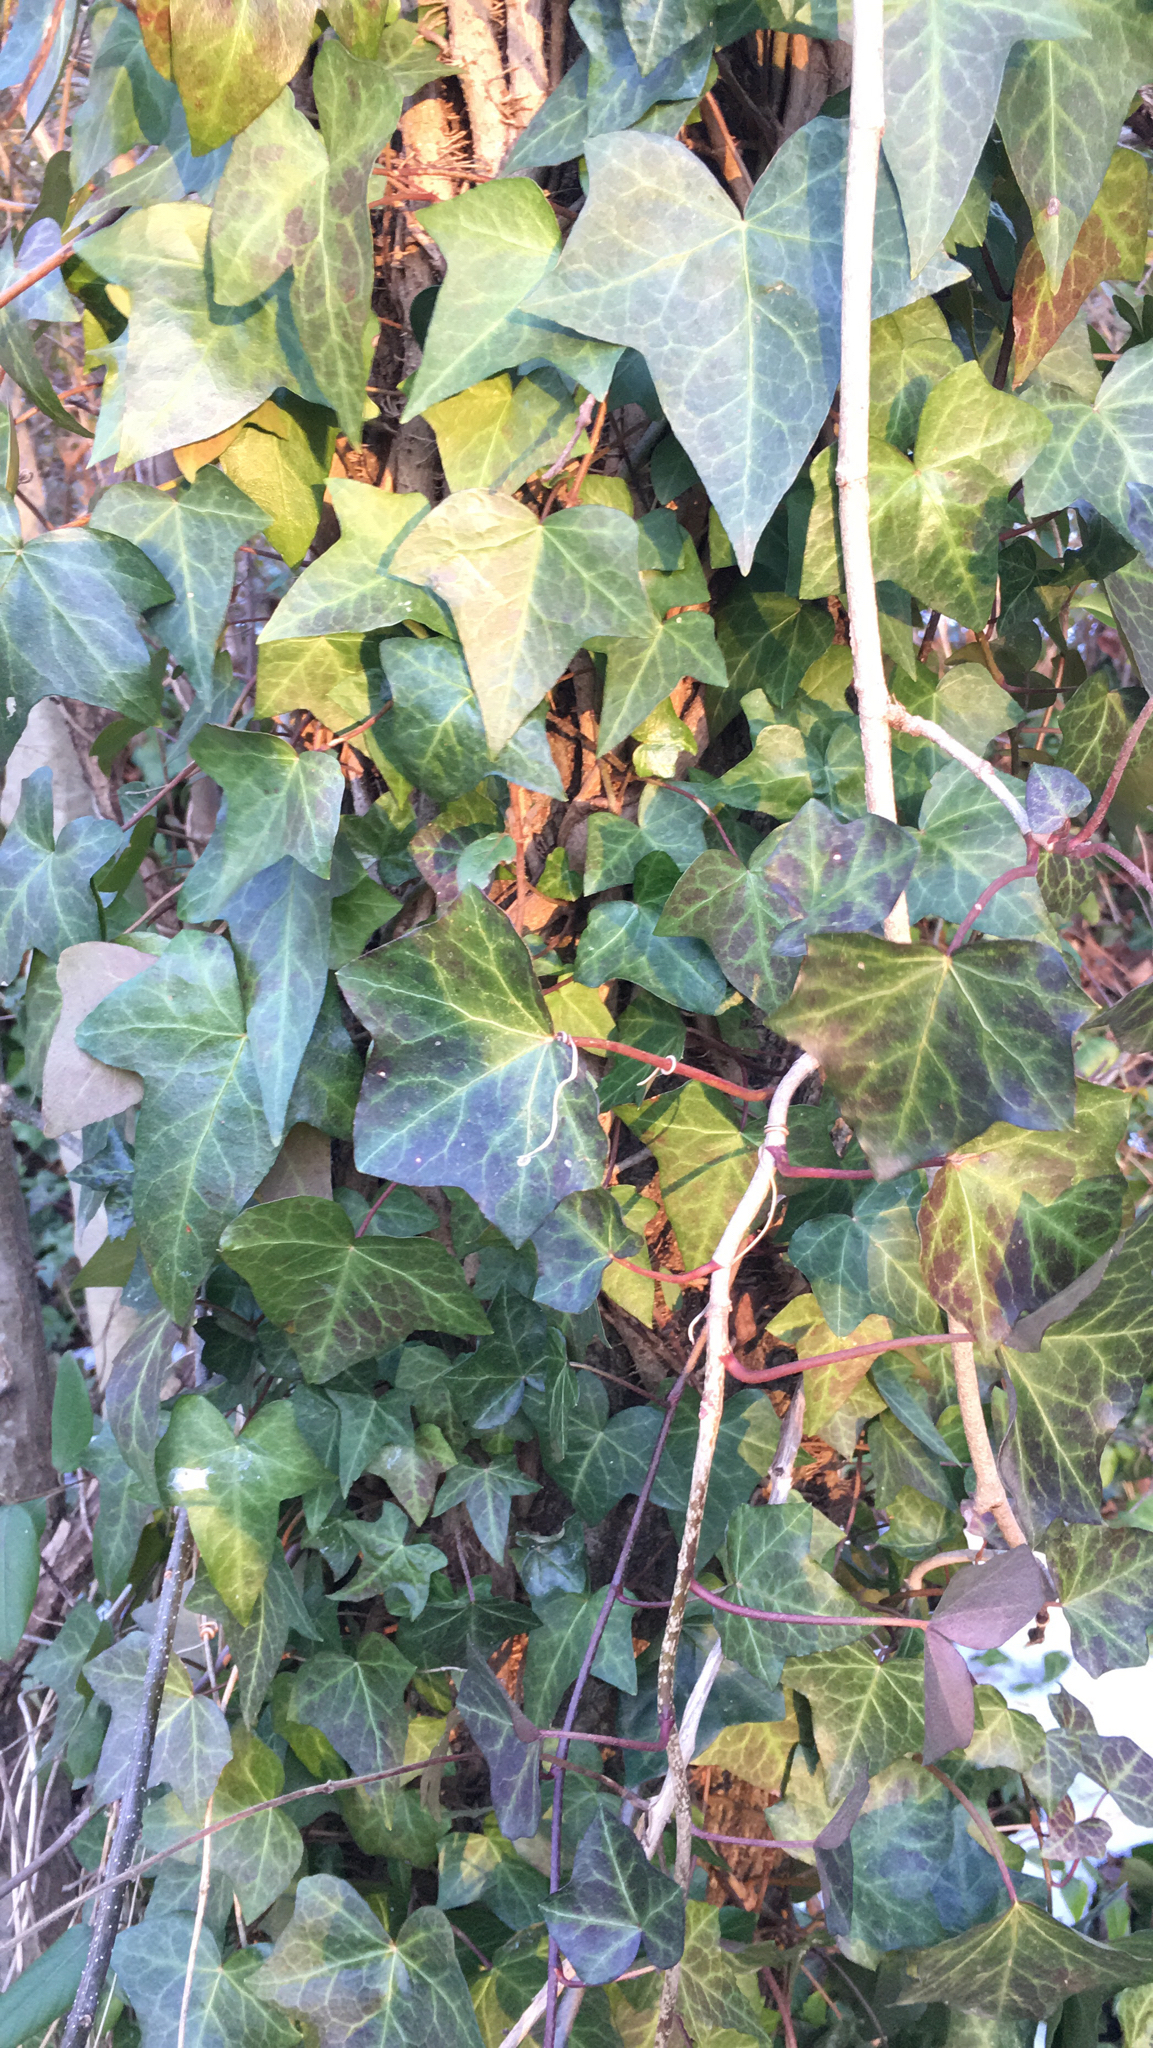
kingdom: Plantae
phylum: Tracheophyta
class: Magnoliopsida
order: Apiales
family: Araliaceae
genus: Hedera
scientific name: Hedera helix
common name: Ivy
